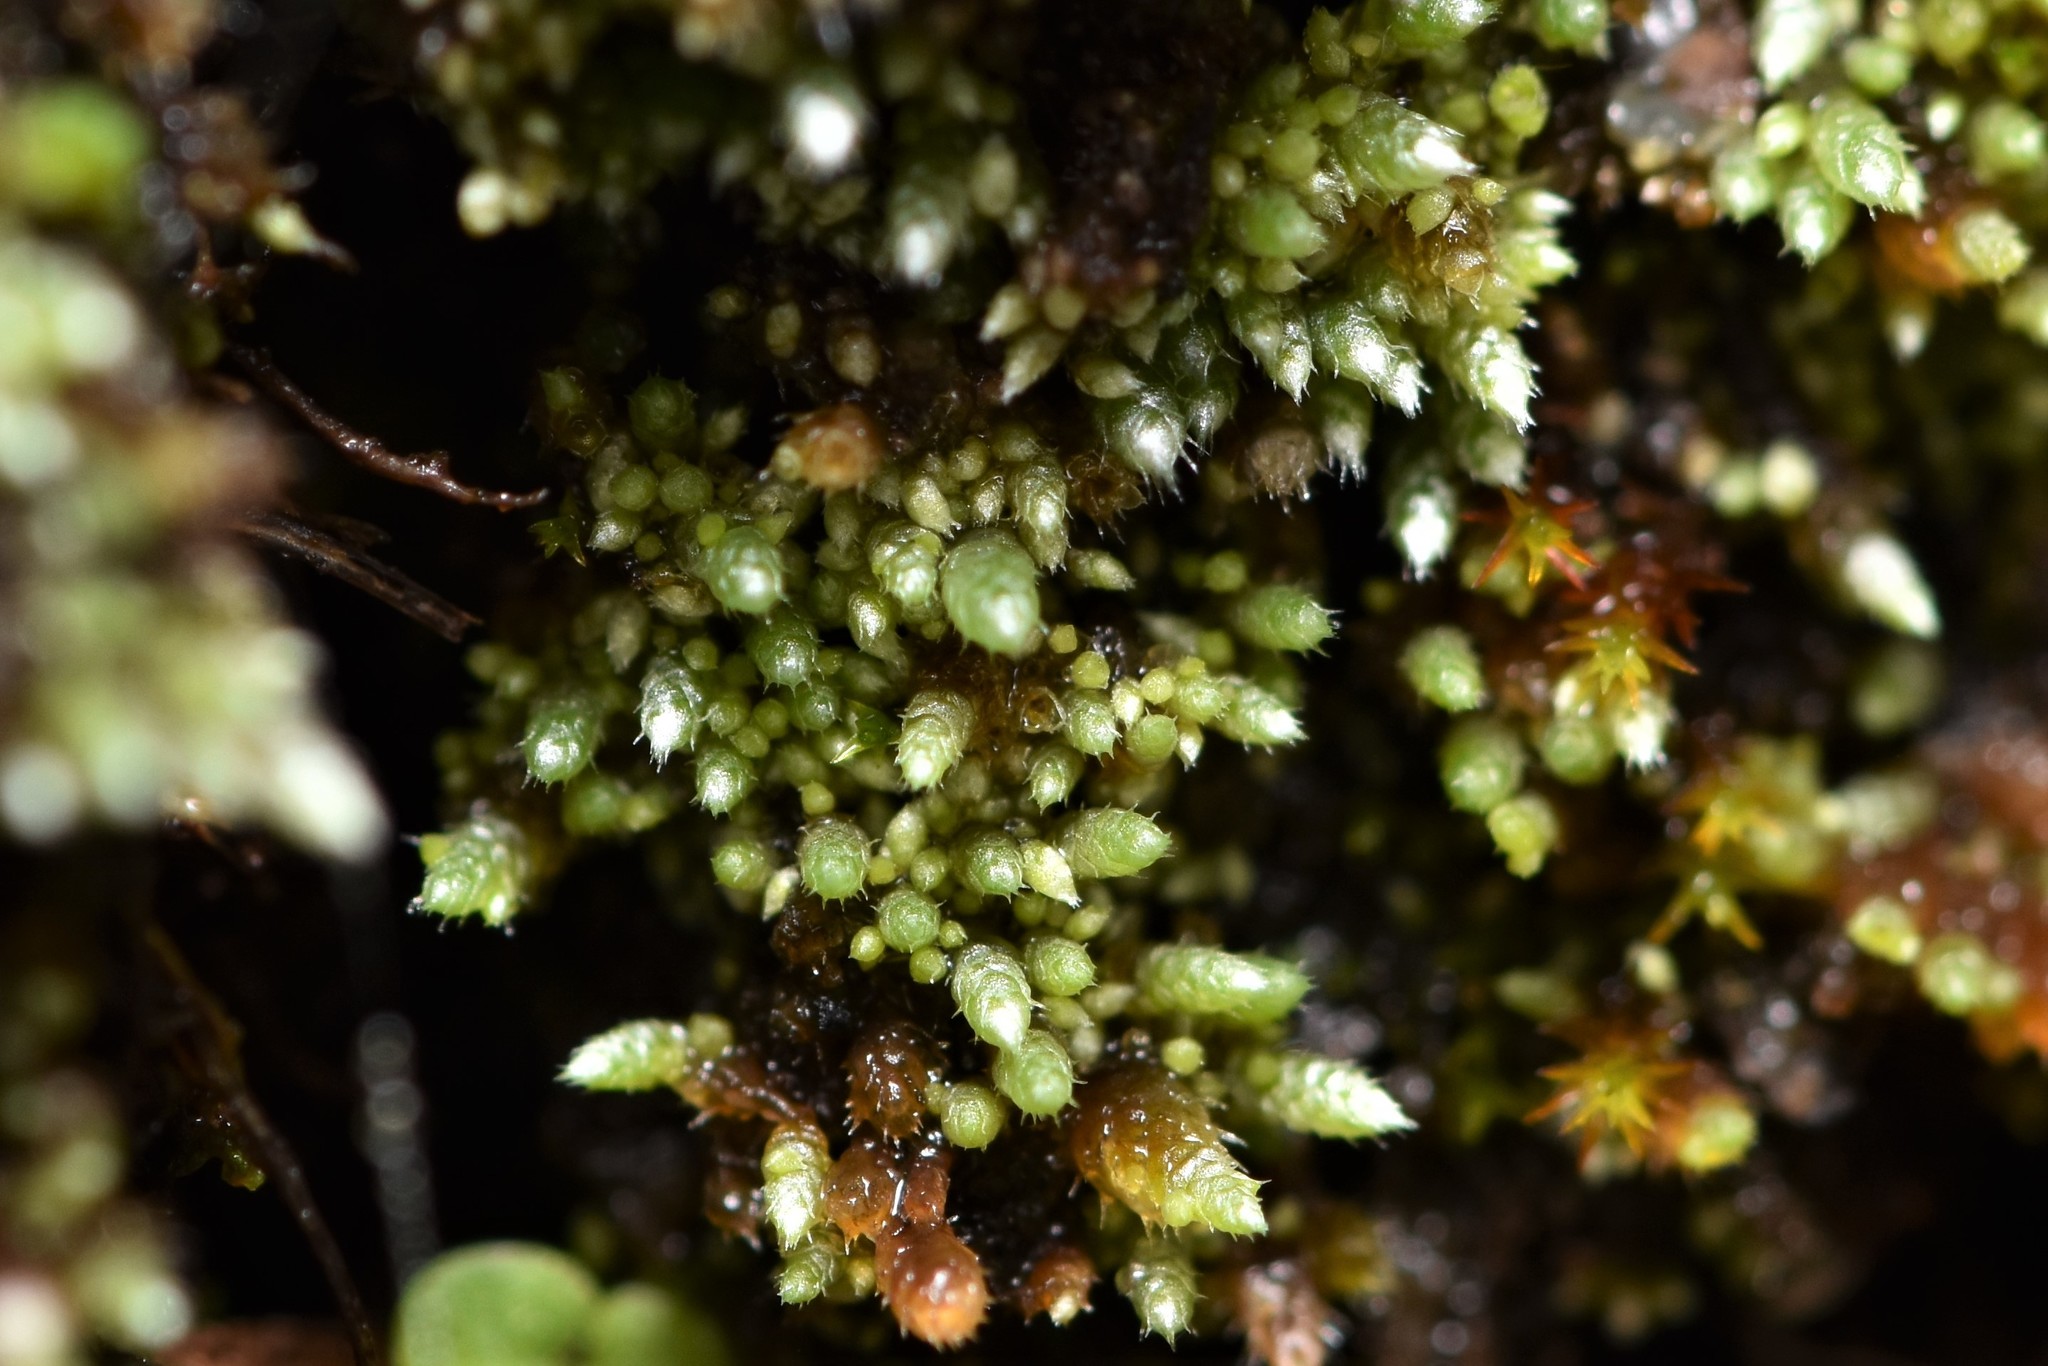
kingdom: Plantae
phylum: Bryophyta
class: Bryopsida
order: Bryales
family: Bryaceae
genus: Bryum
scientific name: Bryum argenteum
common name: Silver-moss
